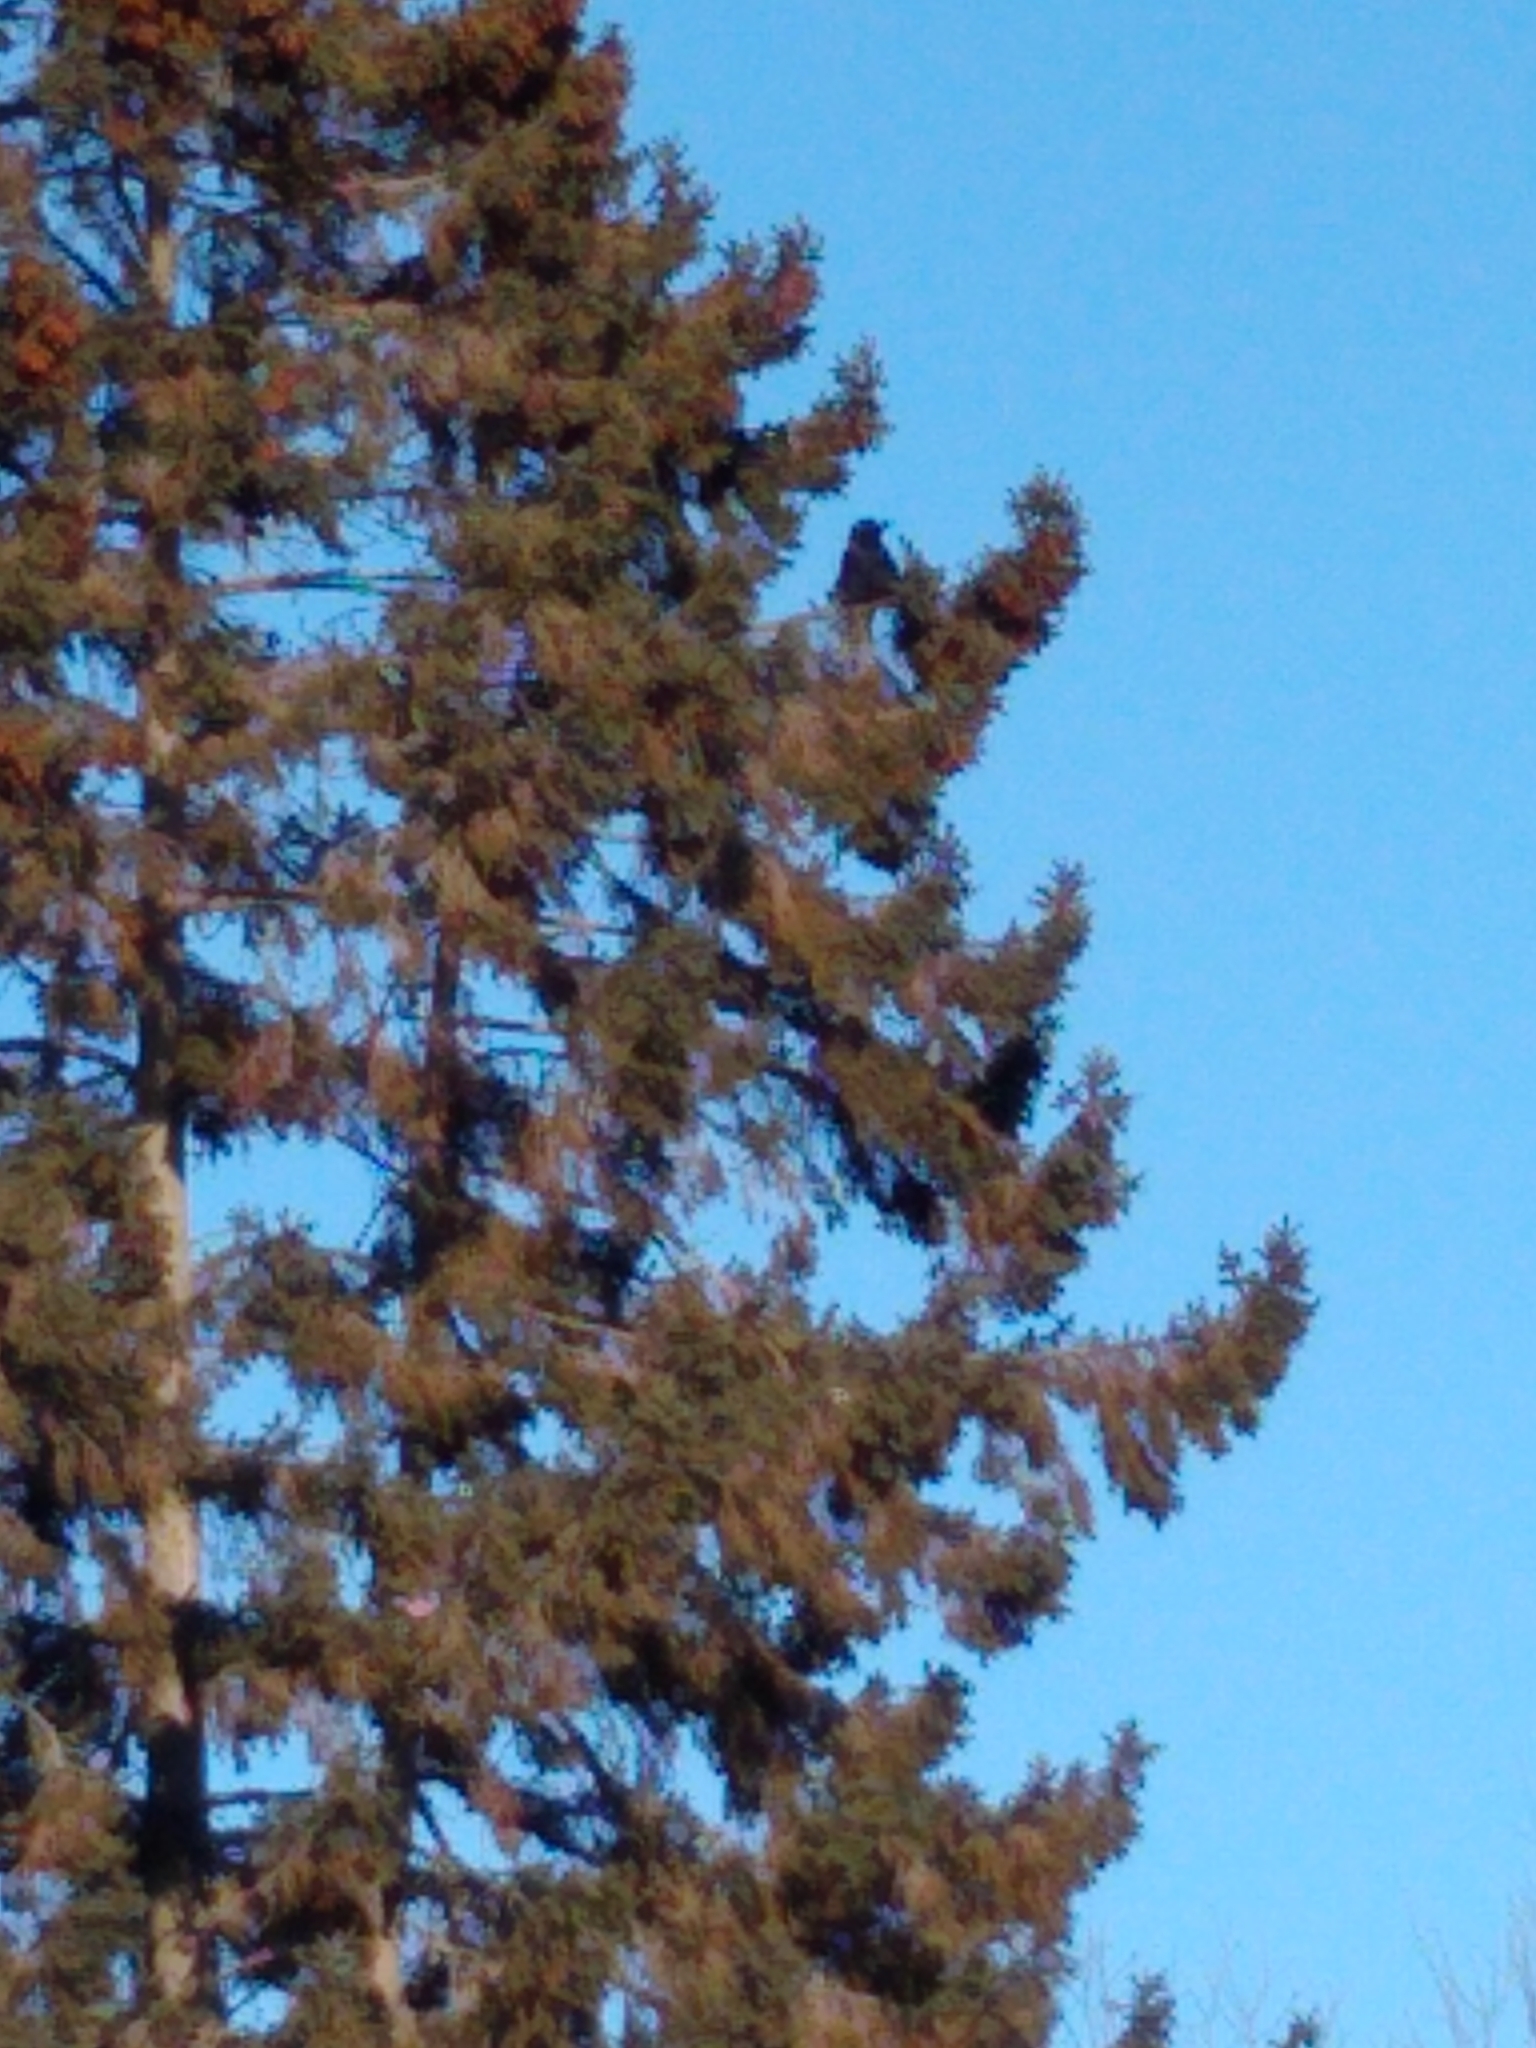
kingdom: Animalia
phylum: Chordata
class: Aves
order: Passeriformes
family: Corvidae
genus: Corvus
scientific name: Corvus brachyrhynchos
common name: American crow
